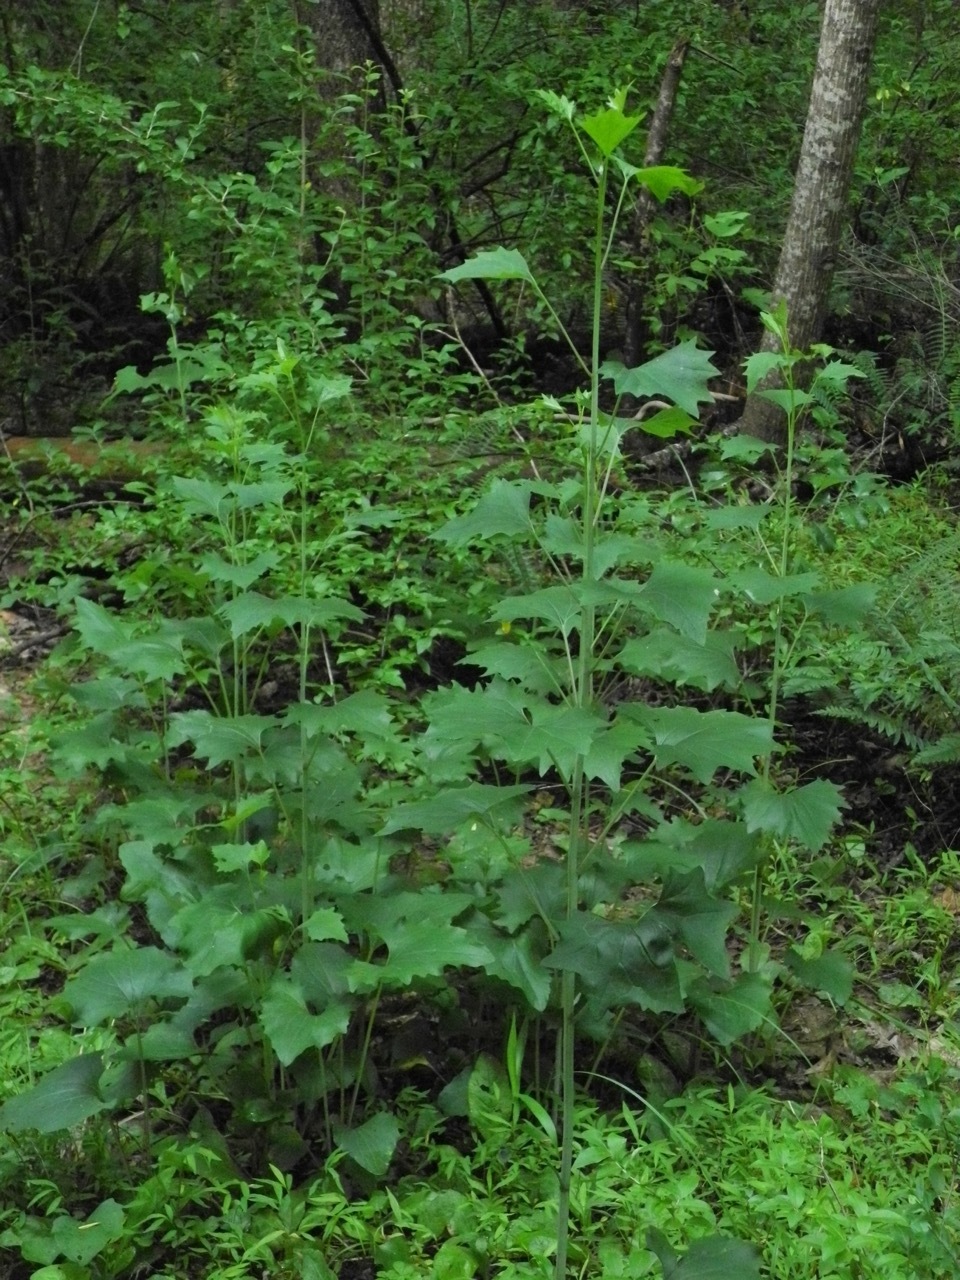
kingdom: Plantae
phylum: Tracheophyta
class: Magnoliopsida
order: Asterales
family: Asteraceae
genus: Arnoglossum
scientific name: Arnoglossum atriplicifolium
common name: Pale indian-plantain
